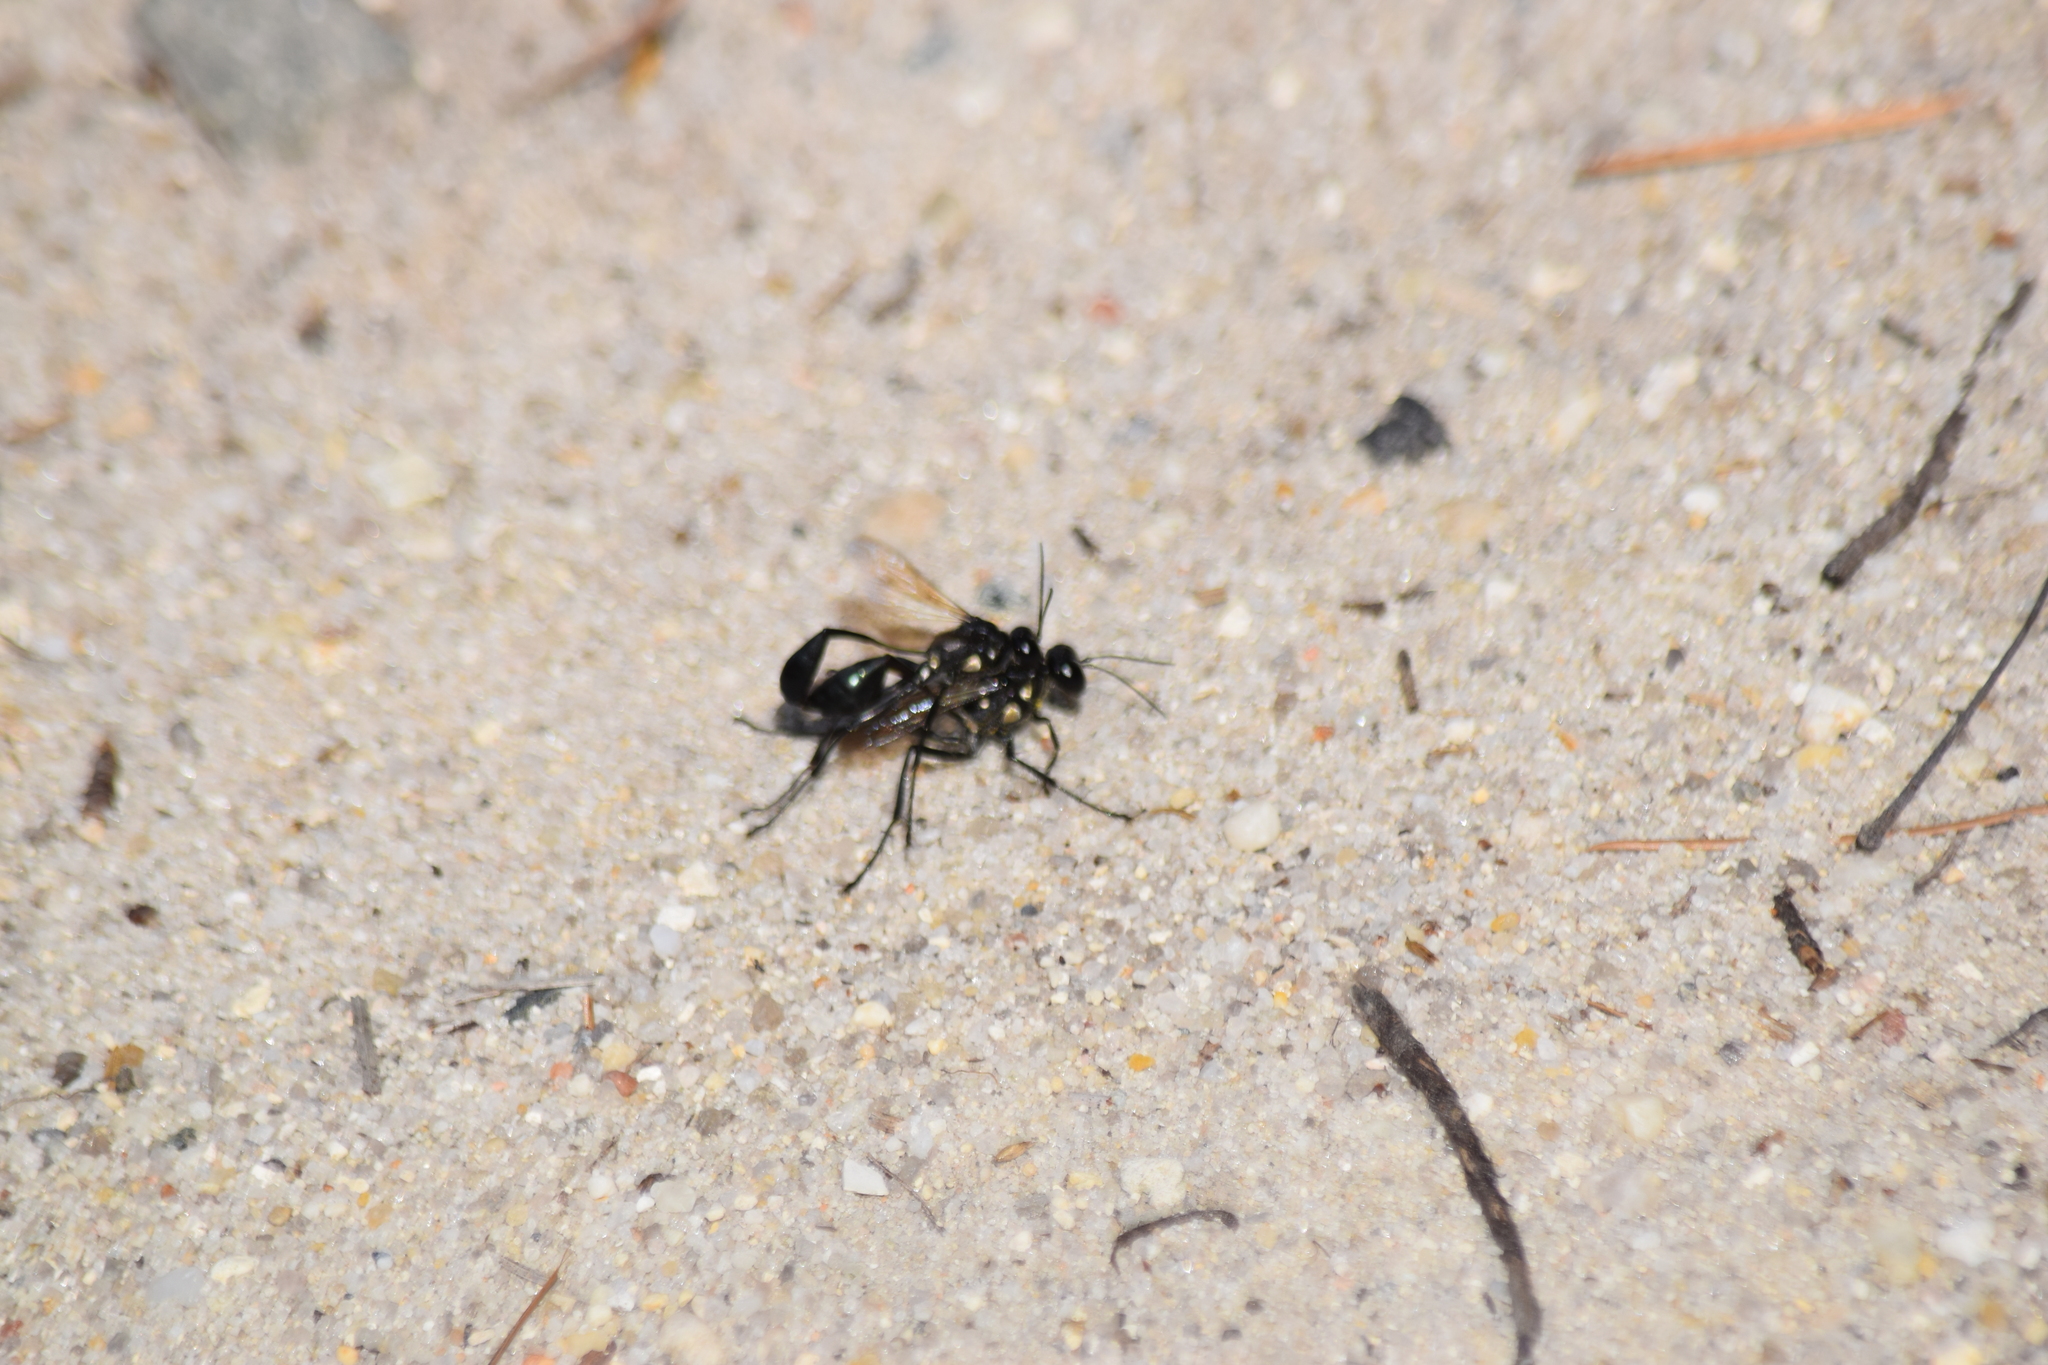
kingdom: Animalia
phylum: Arthropoda
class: Insecta
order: Hymenoptera
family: Sphecidae
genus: Eremnophila
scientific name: Eremnophila aureonotata
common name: Gold-marked thread-waisted wasp
